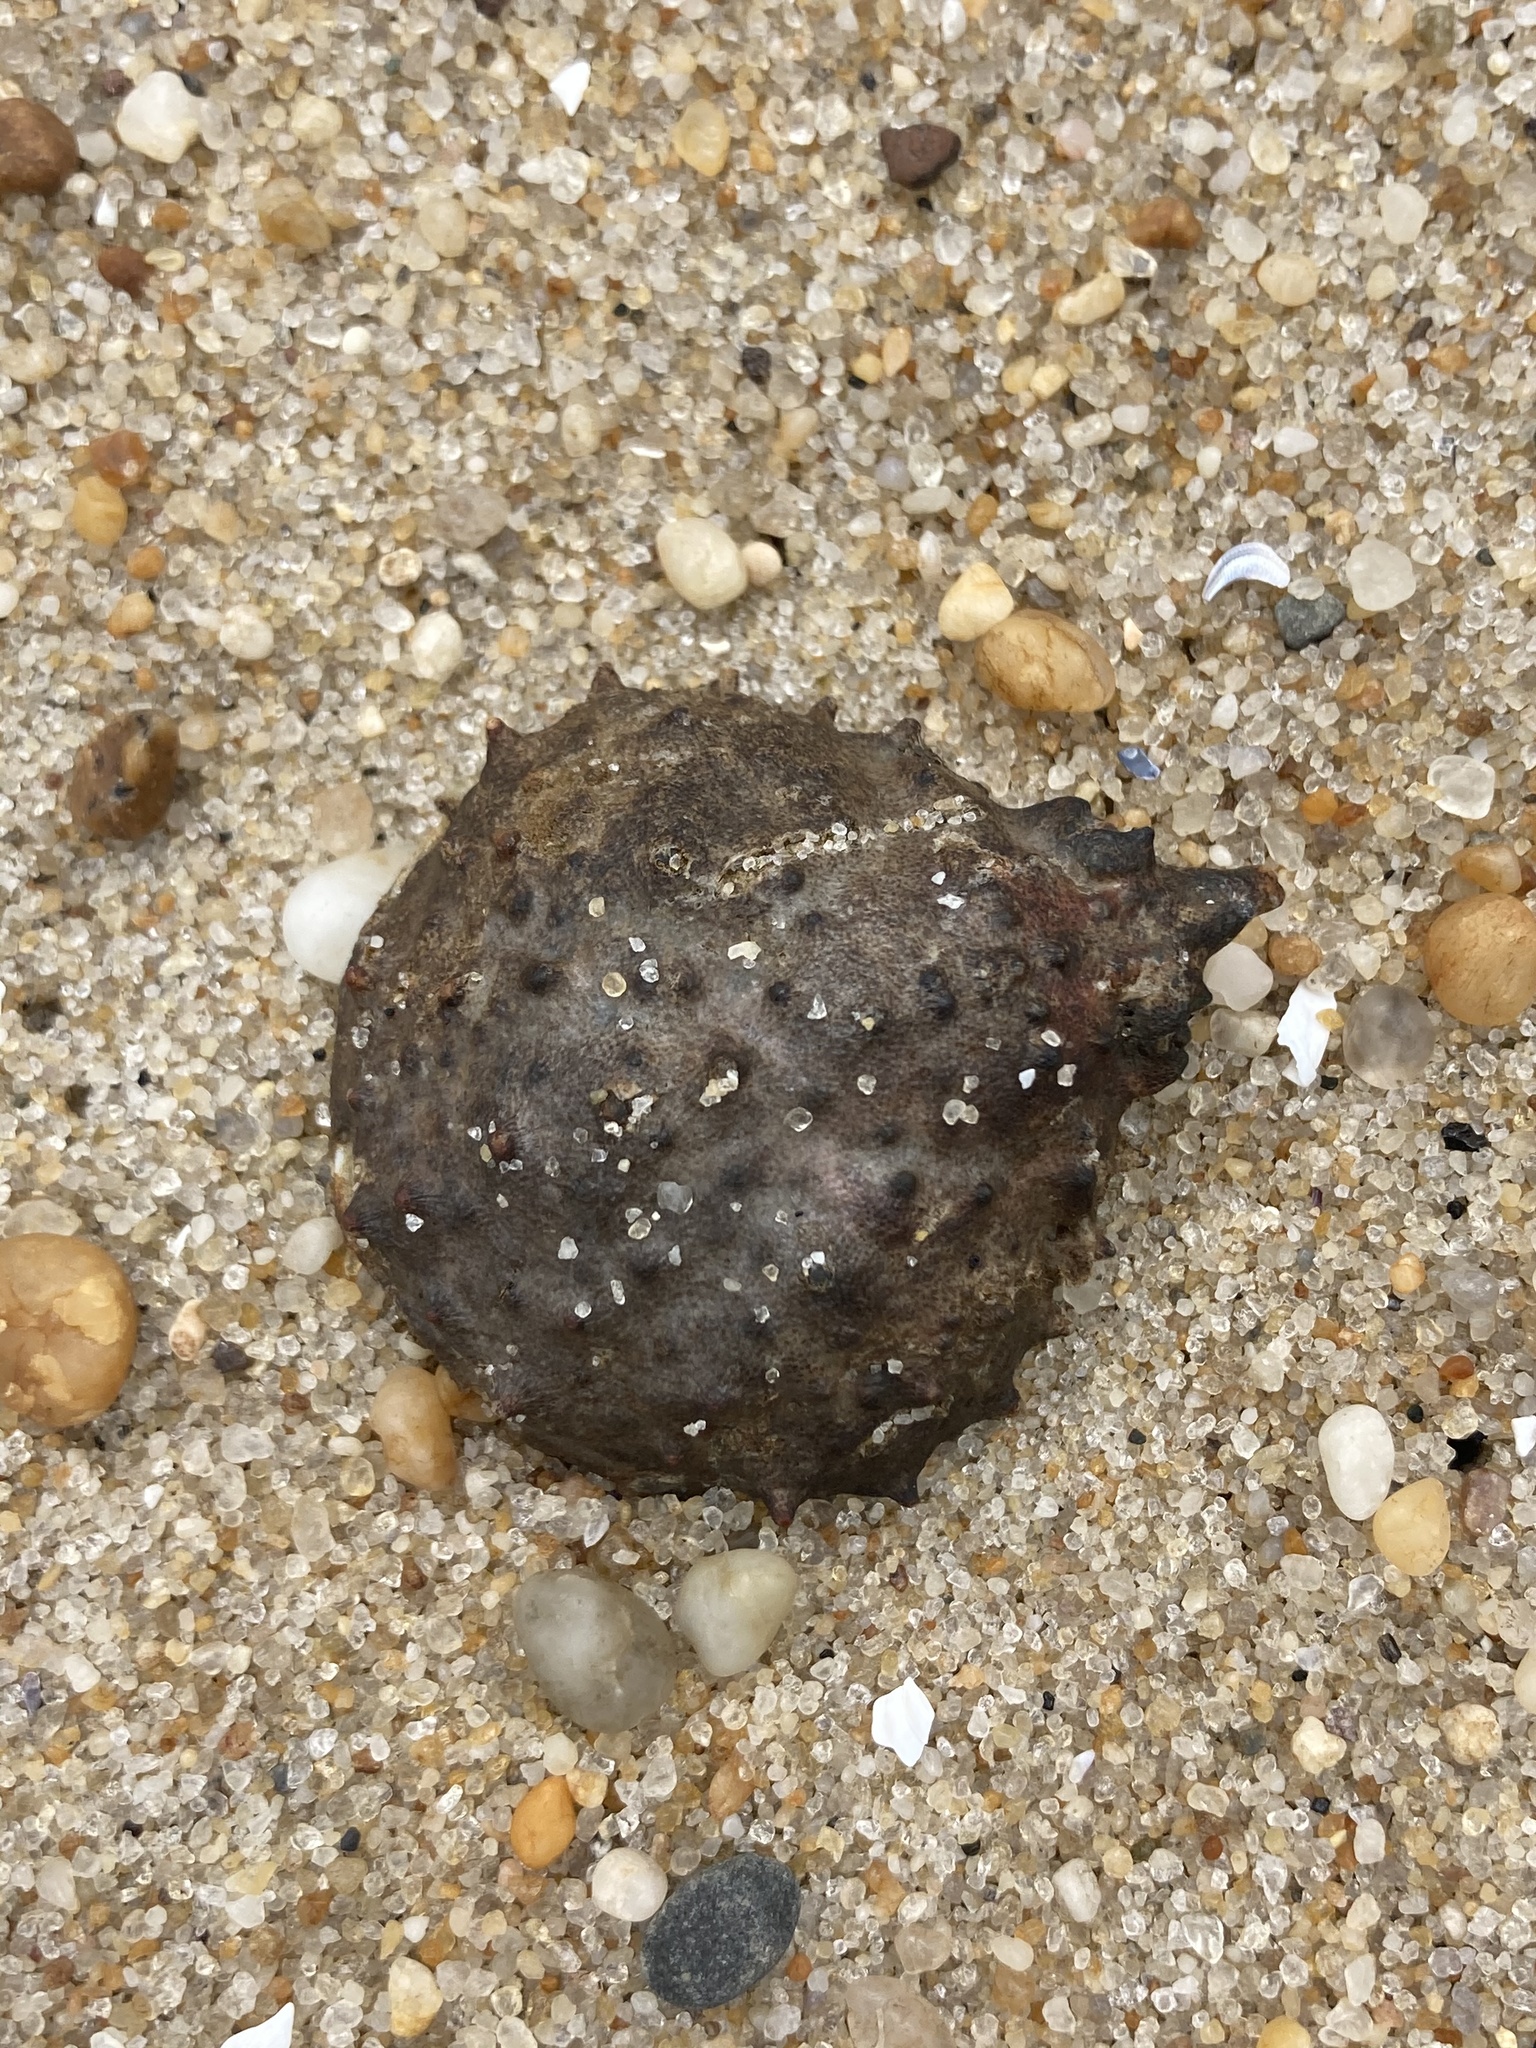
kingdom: Animalia
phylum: Arthropoda
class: Malacostraca
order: Decapoda
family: Epialtidae
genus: Libinia
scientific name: Libinia emarginata
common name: Common spider crab
